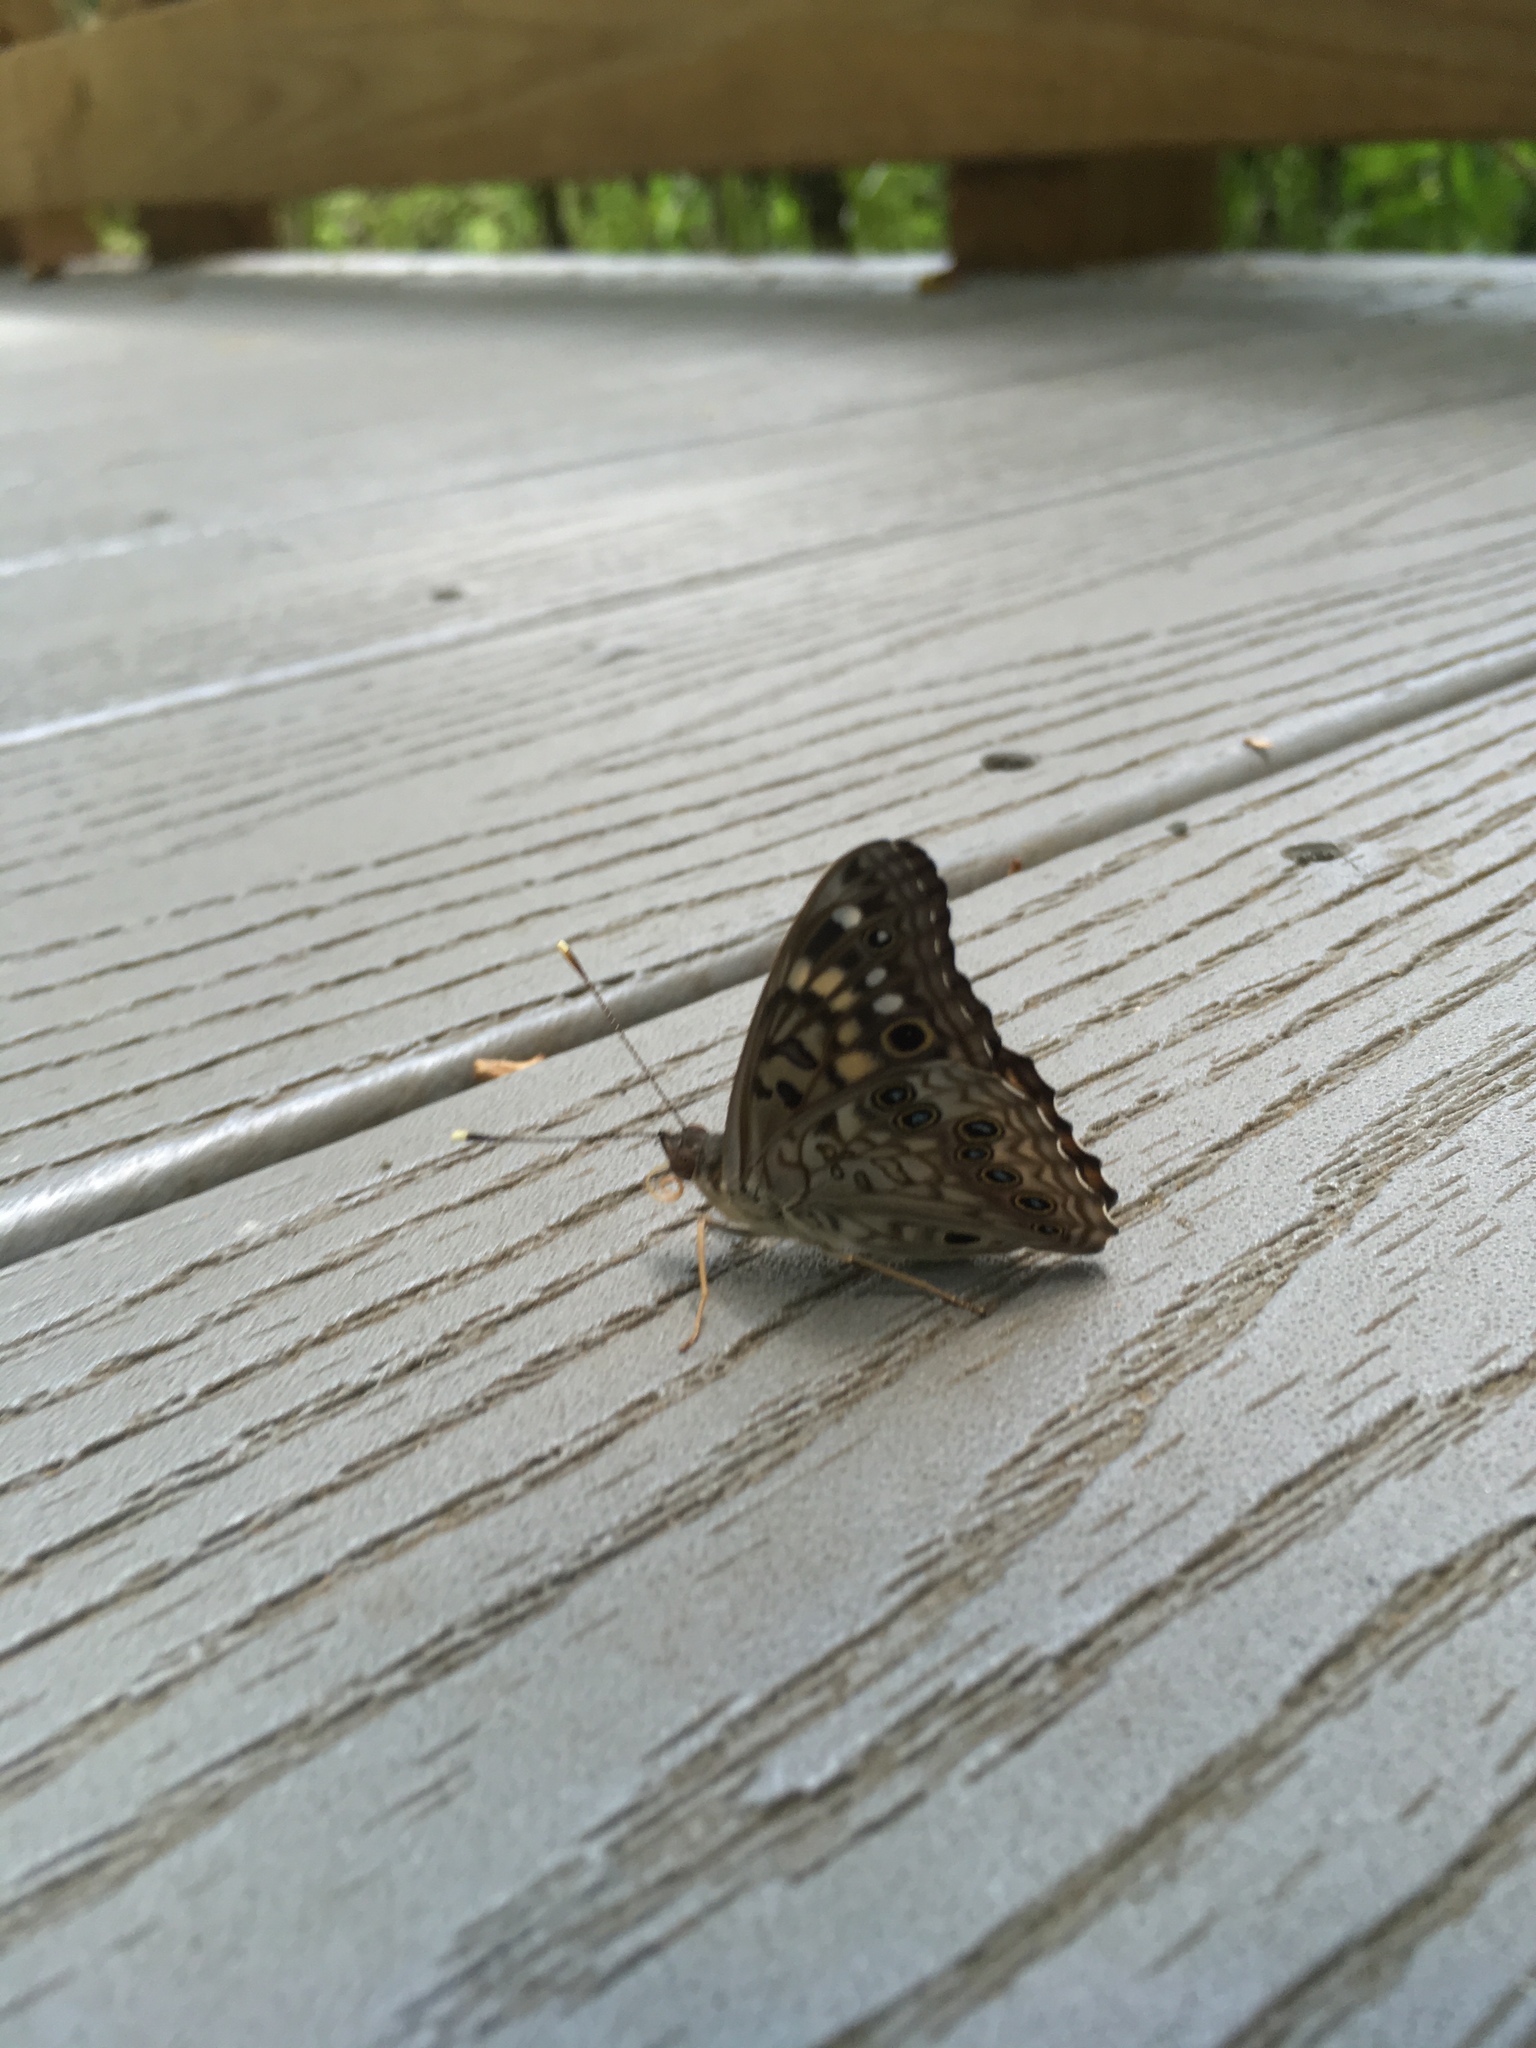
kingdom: Animalia
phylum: Arthropoda
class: Insecta
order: Lepidoptera
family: Nymphalidae
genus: Asterocampa
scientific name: Asterocampa celtis
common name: Hackberry emperor
